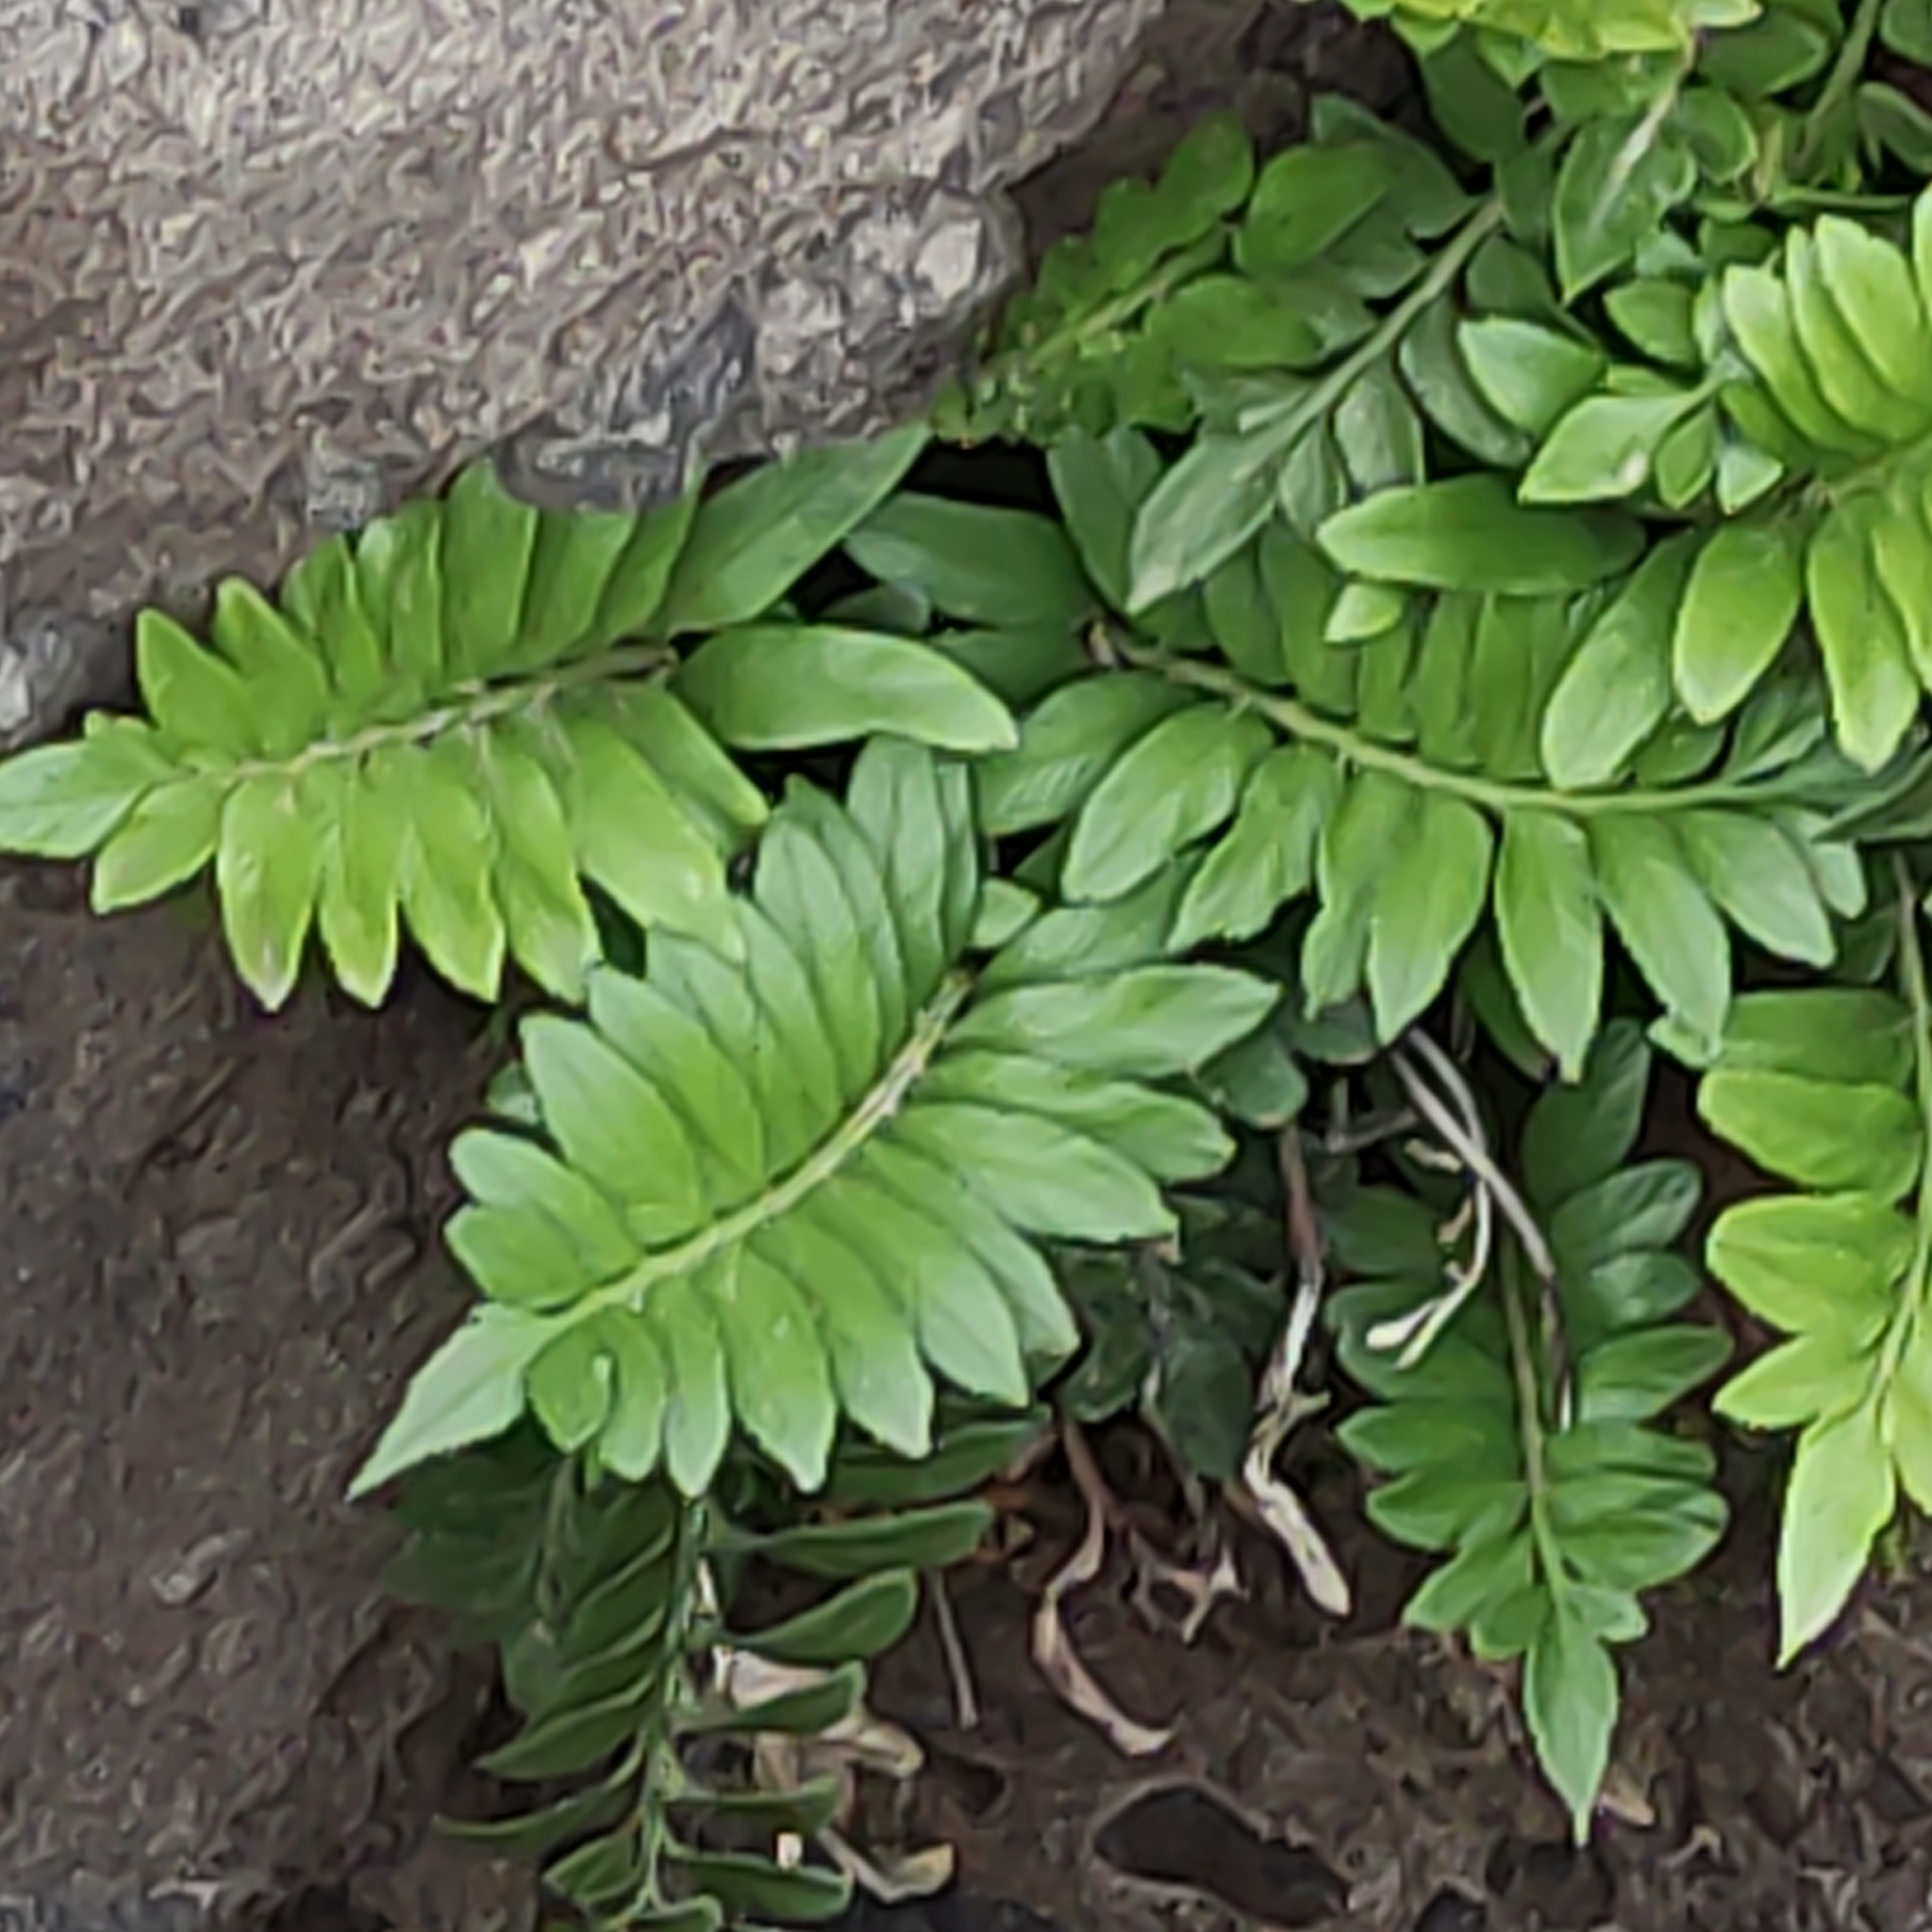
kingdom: Plantae
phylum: Tracheophyta
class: Polypodiopsida
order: Polypodiales
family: Aspleniaceae
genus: Asplenium
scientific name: Asplenium obtusatum
